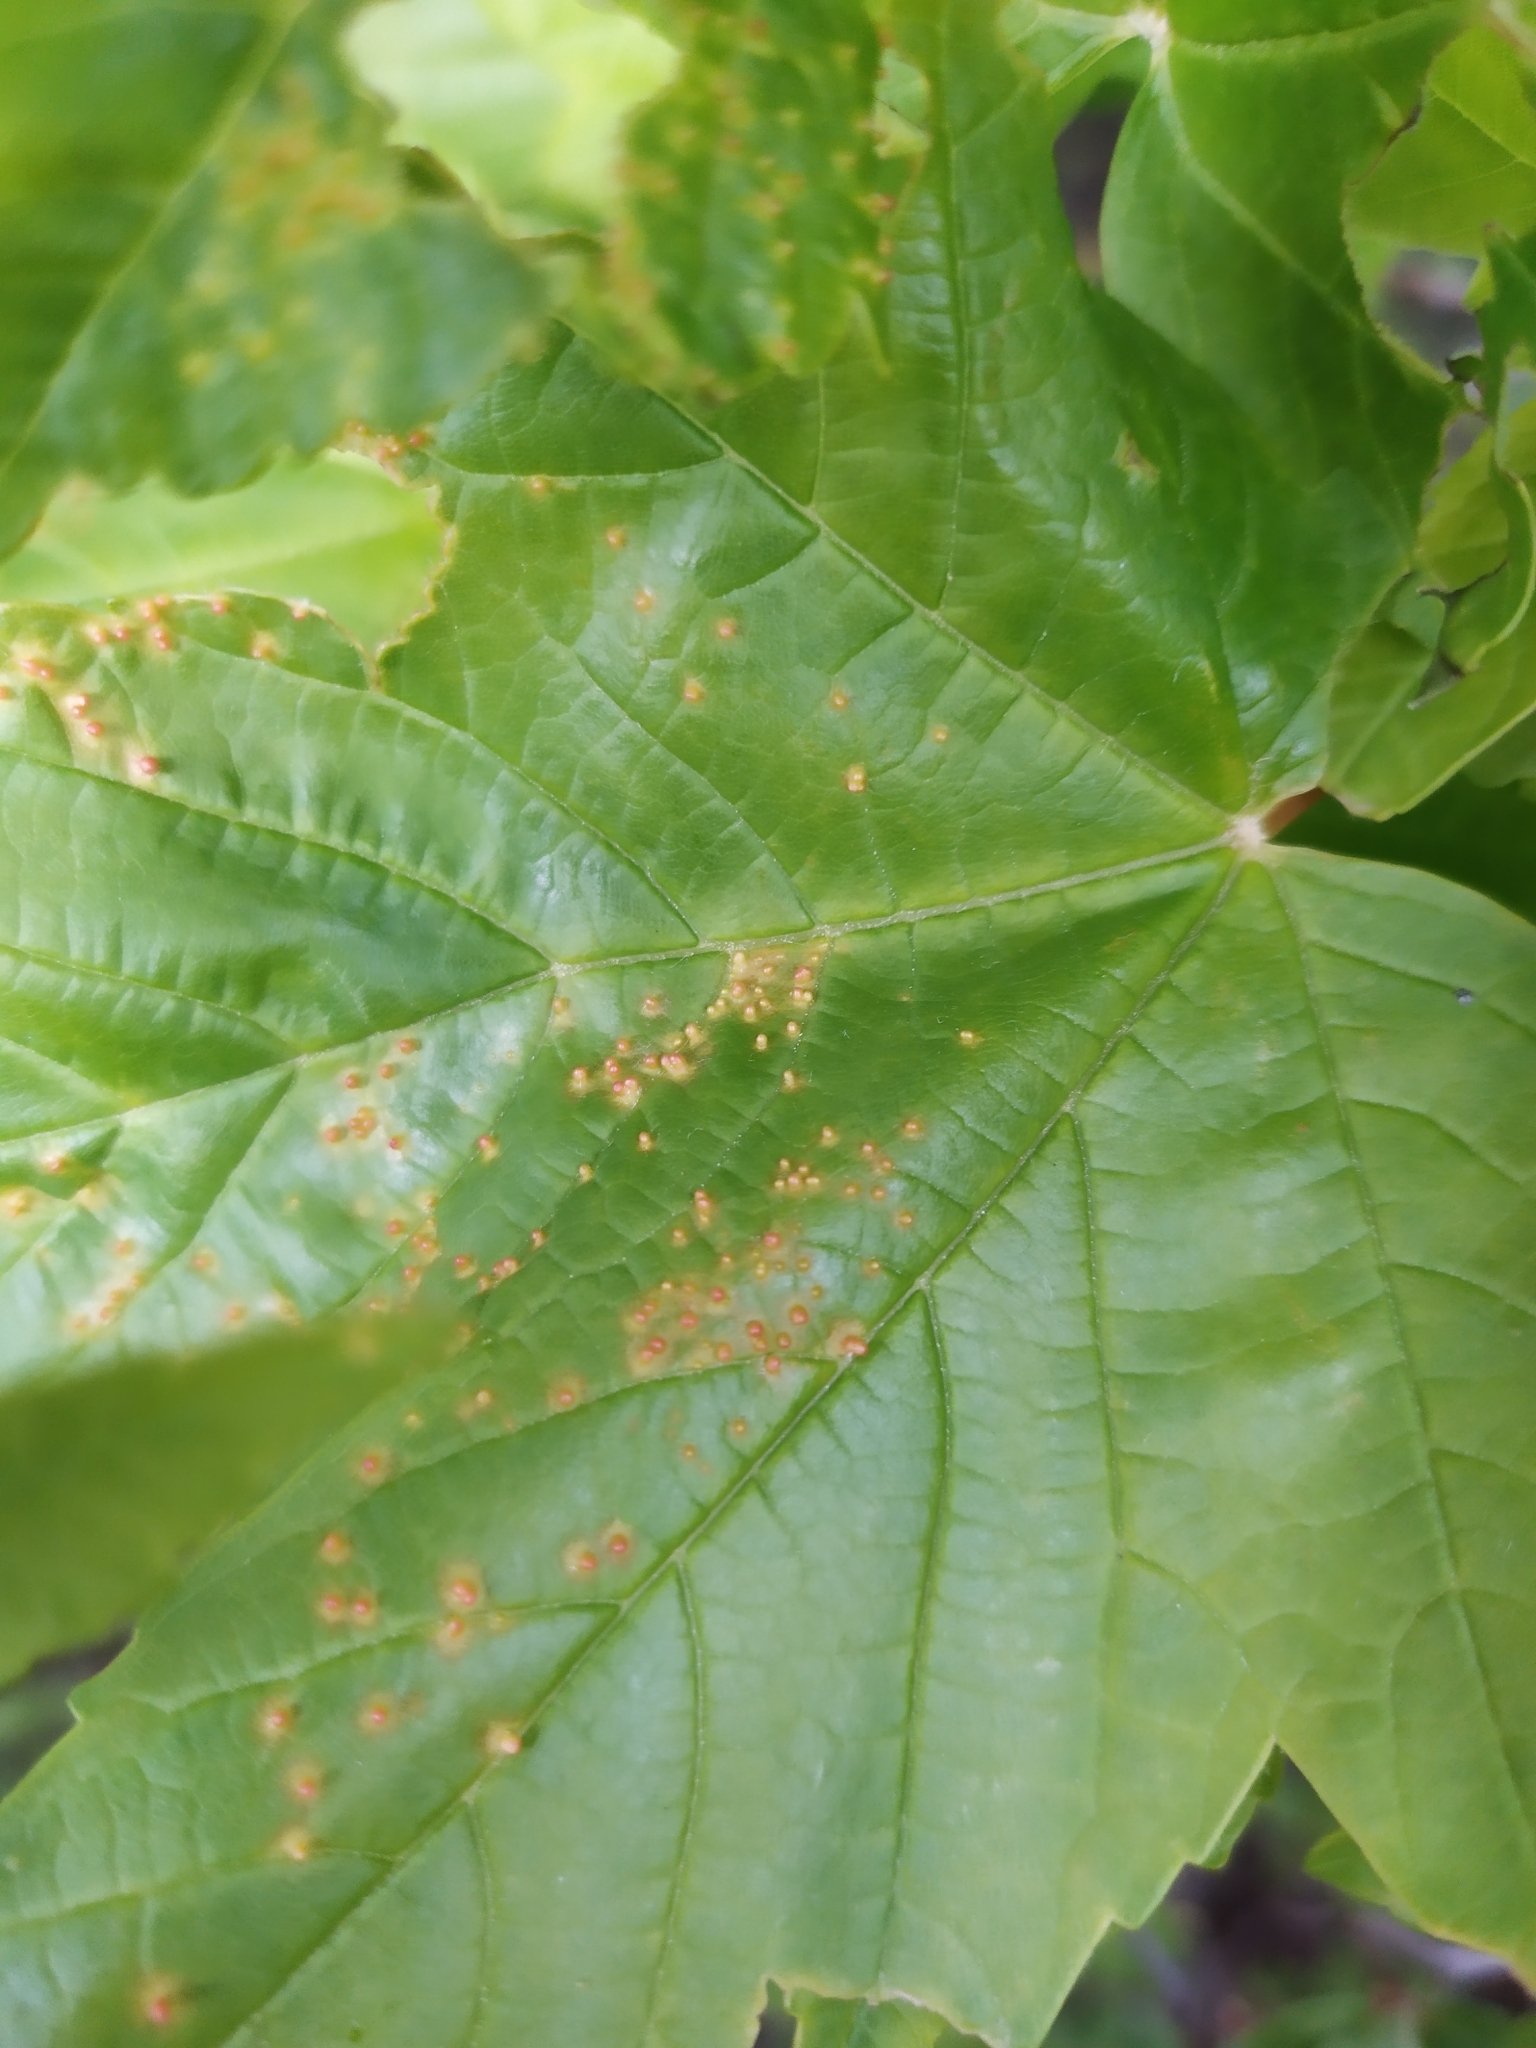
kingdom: Animalia
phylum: Arthropoda
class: Arachnida
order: Trombidiformes
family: Eriophyidae
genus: Aceria
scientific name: Aceria cephaloneus
